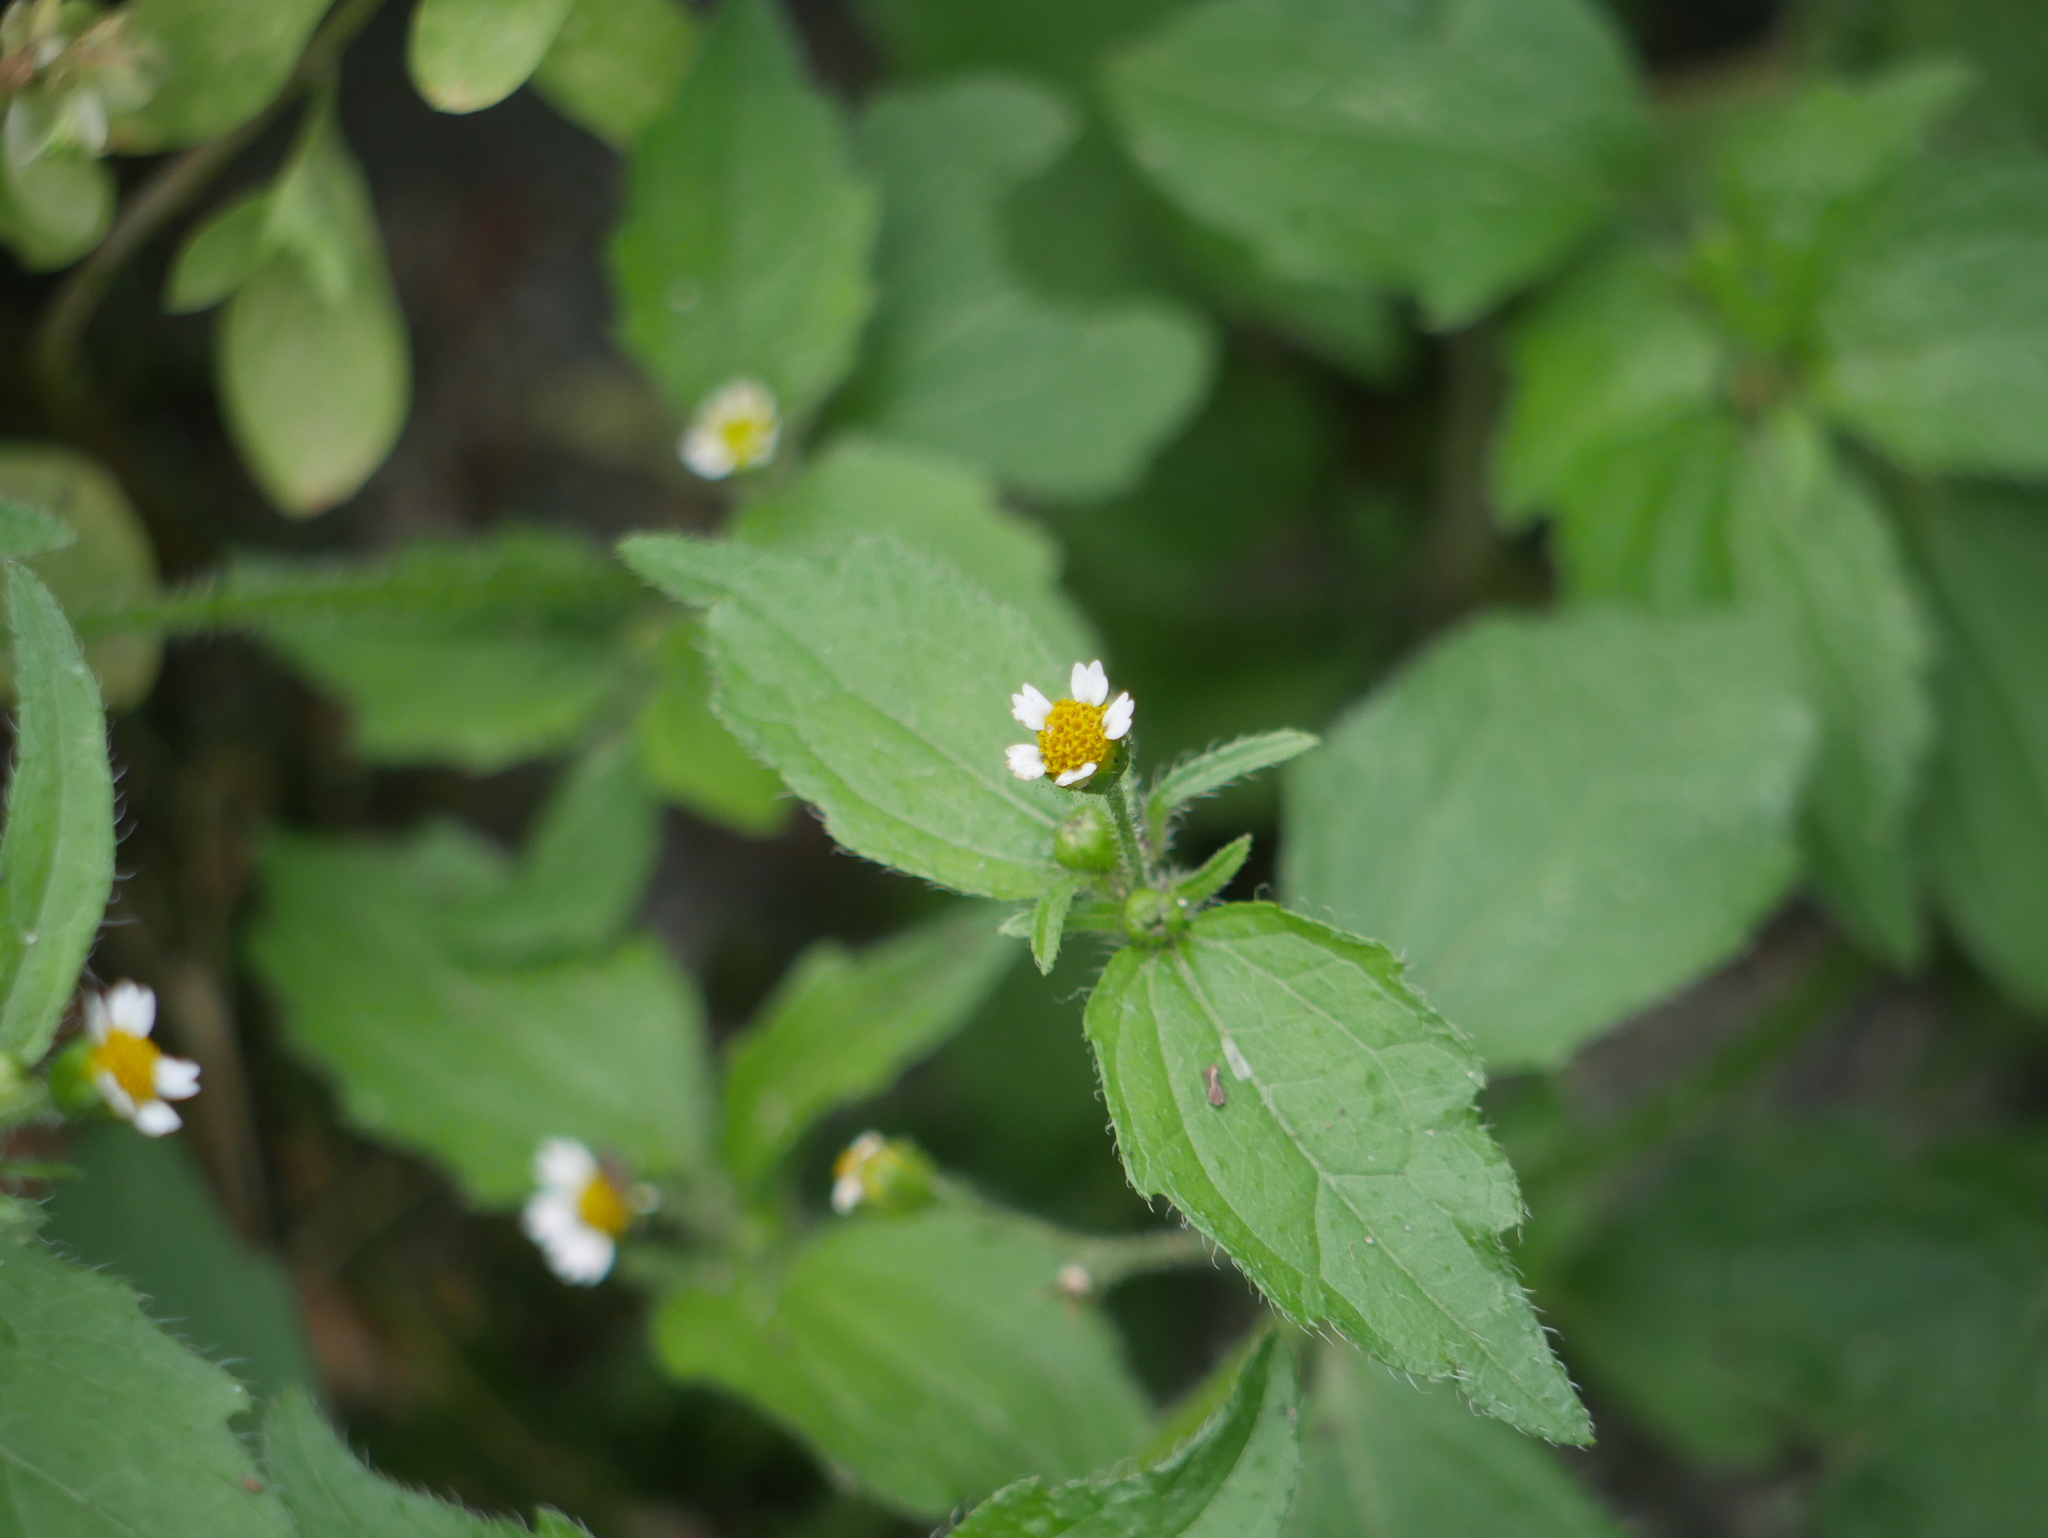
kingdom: Plantae
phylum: Tracheophyta
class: Magnoliopsida
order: Asterales
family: Asteraceae
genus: Galinsoga
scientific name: Galinsoga quadriradiata
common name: Shaggy soldier
